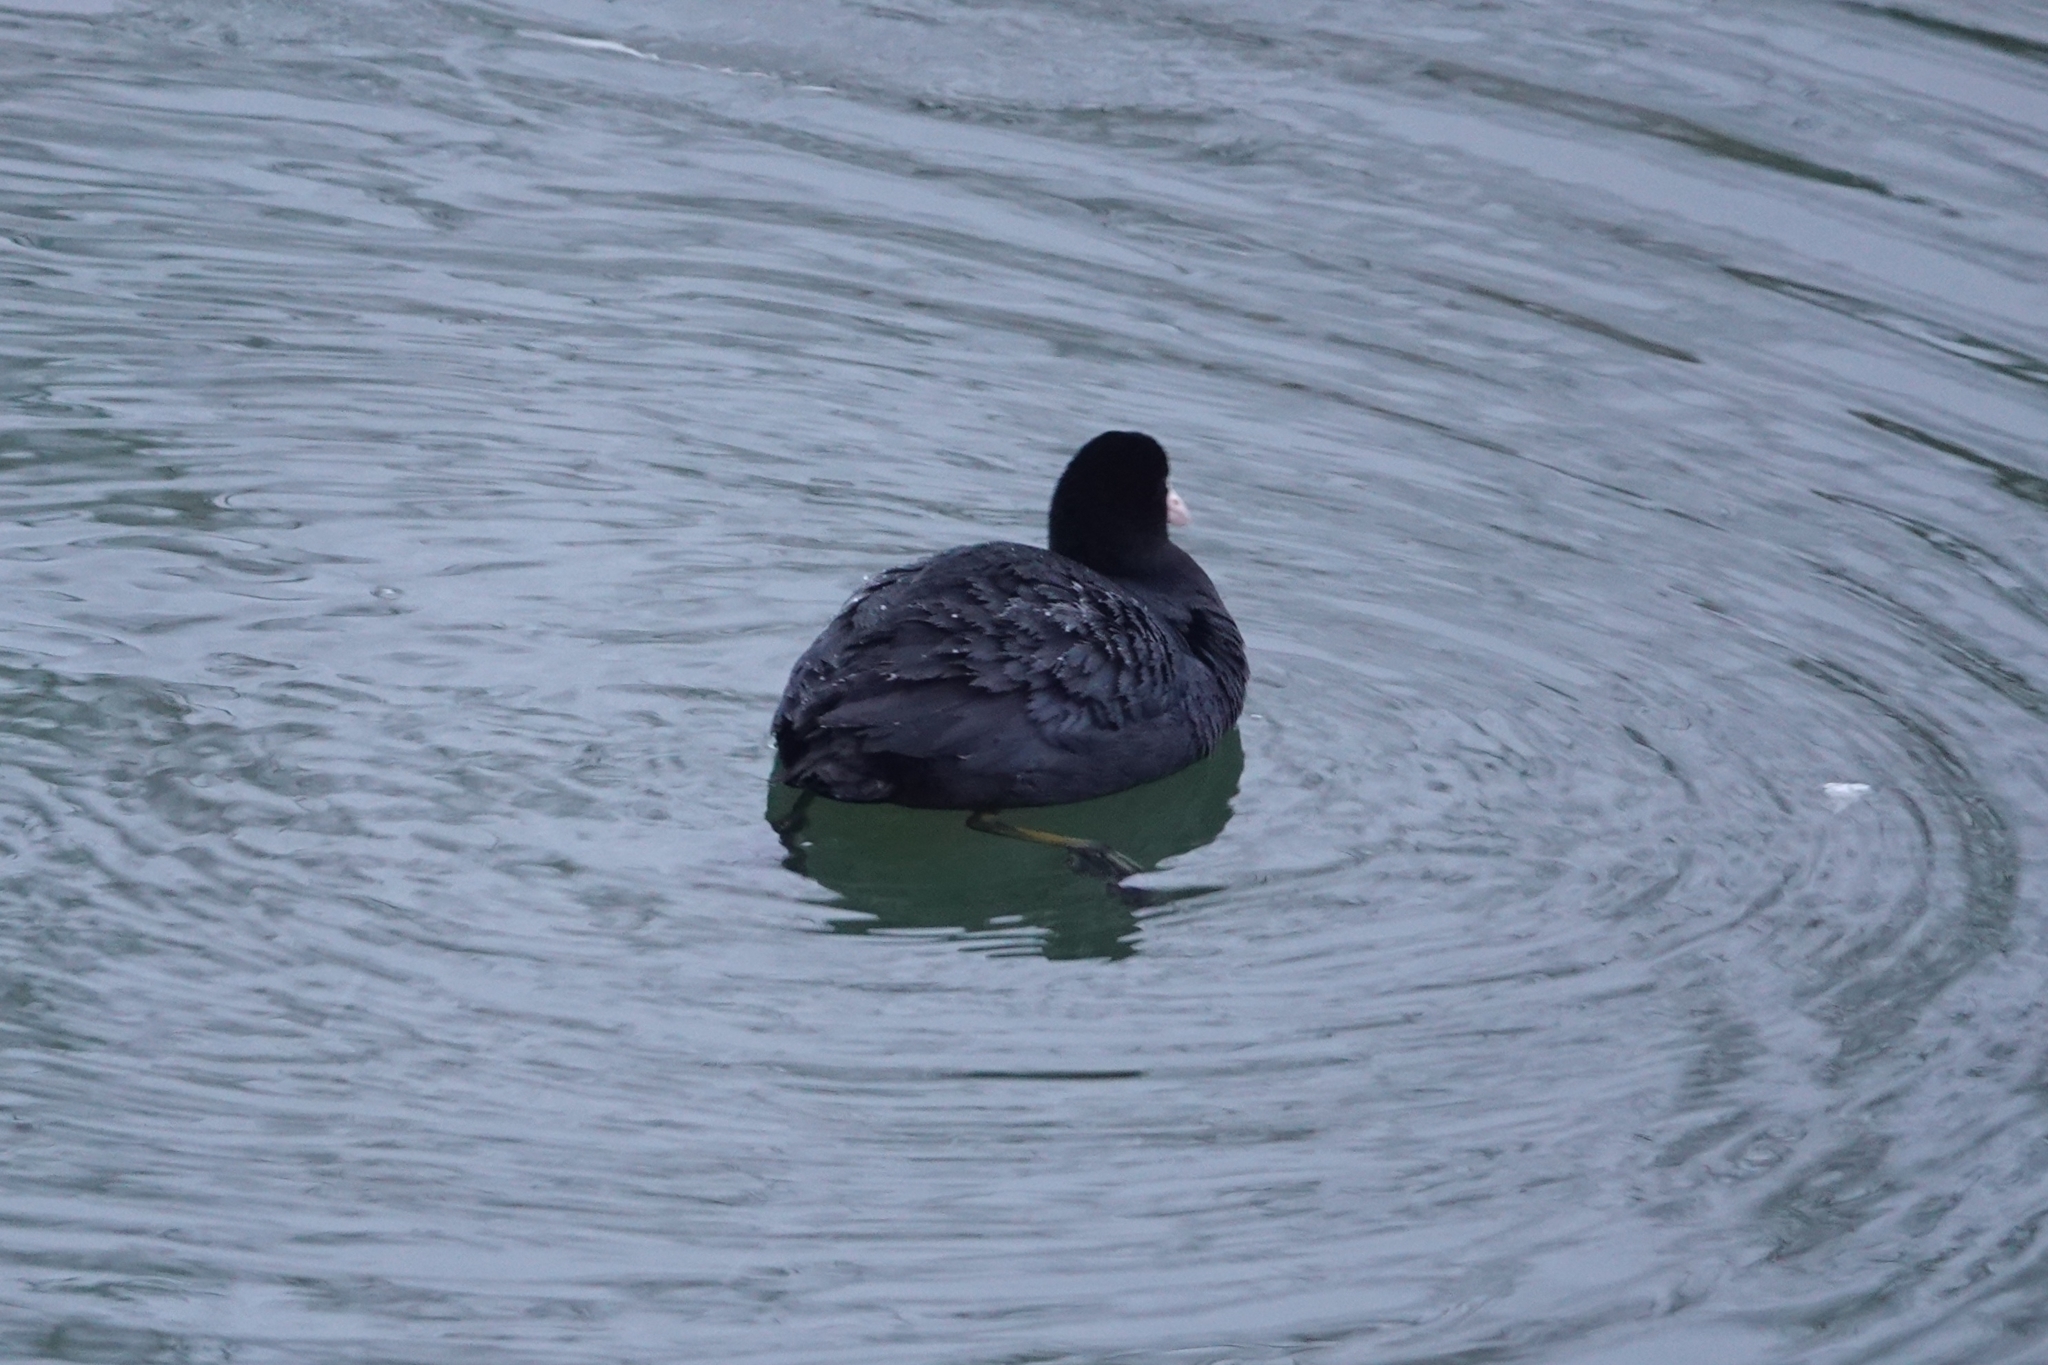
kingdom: Animalia
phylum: Chordata
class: Aves
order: Gruiformes
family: Rallidae
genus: Fulica
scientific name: Fulica atra
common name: Eurasian coot
